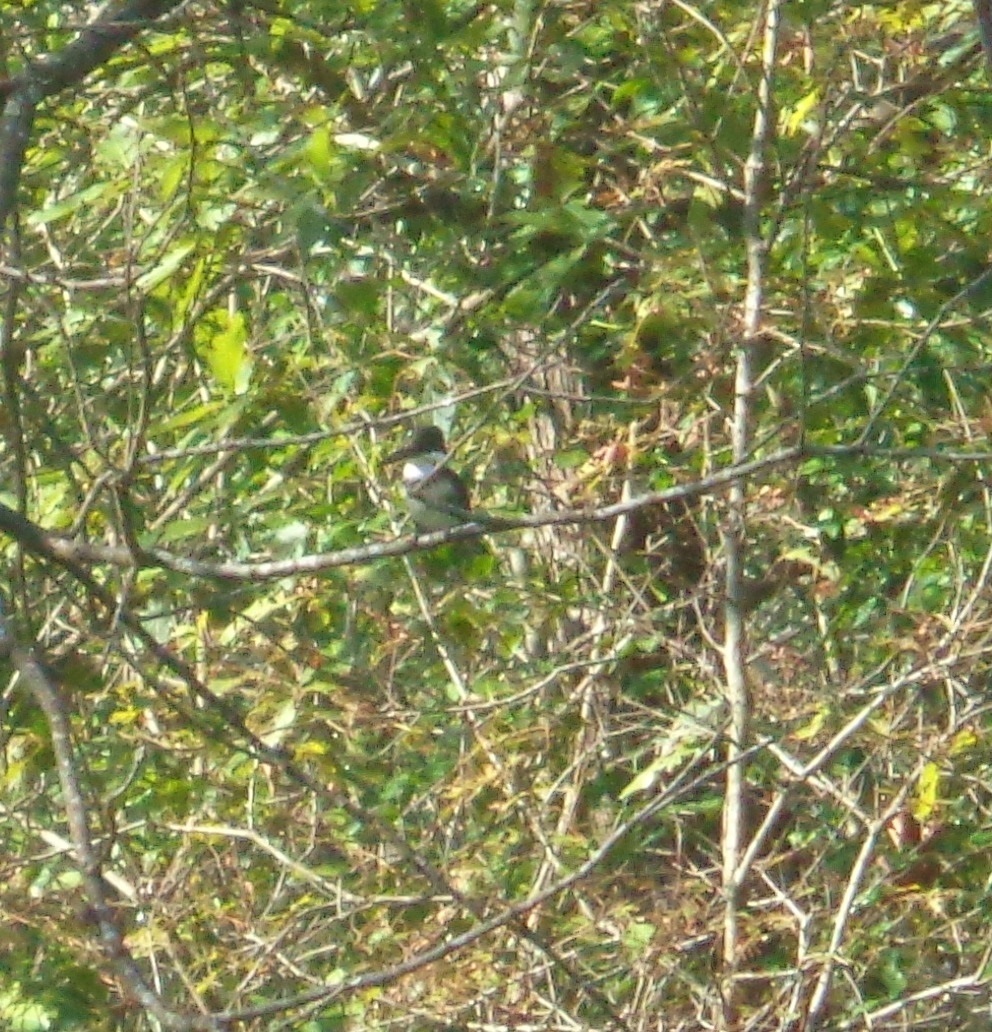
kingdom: Animalia
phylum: Chordata
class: Aves
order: Coraciiformes
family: Alcedinidae
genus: Chloroceryle
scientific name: Chloroceryle americana
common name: Green kingfisher
